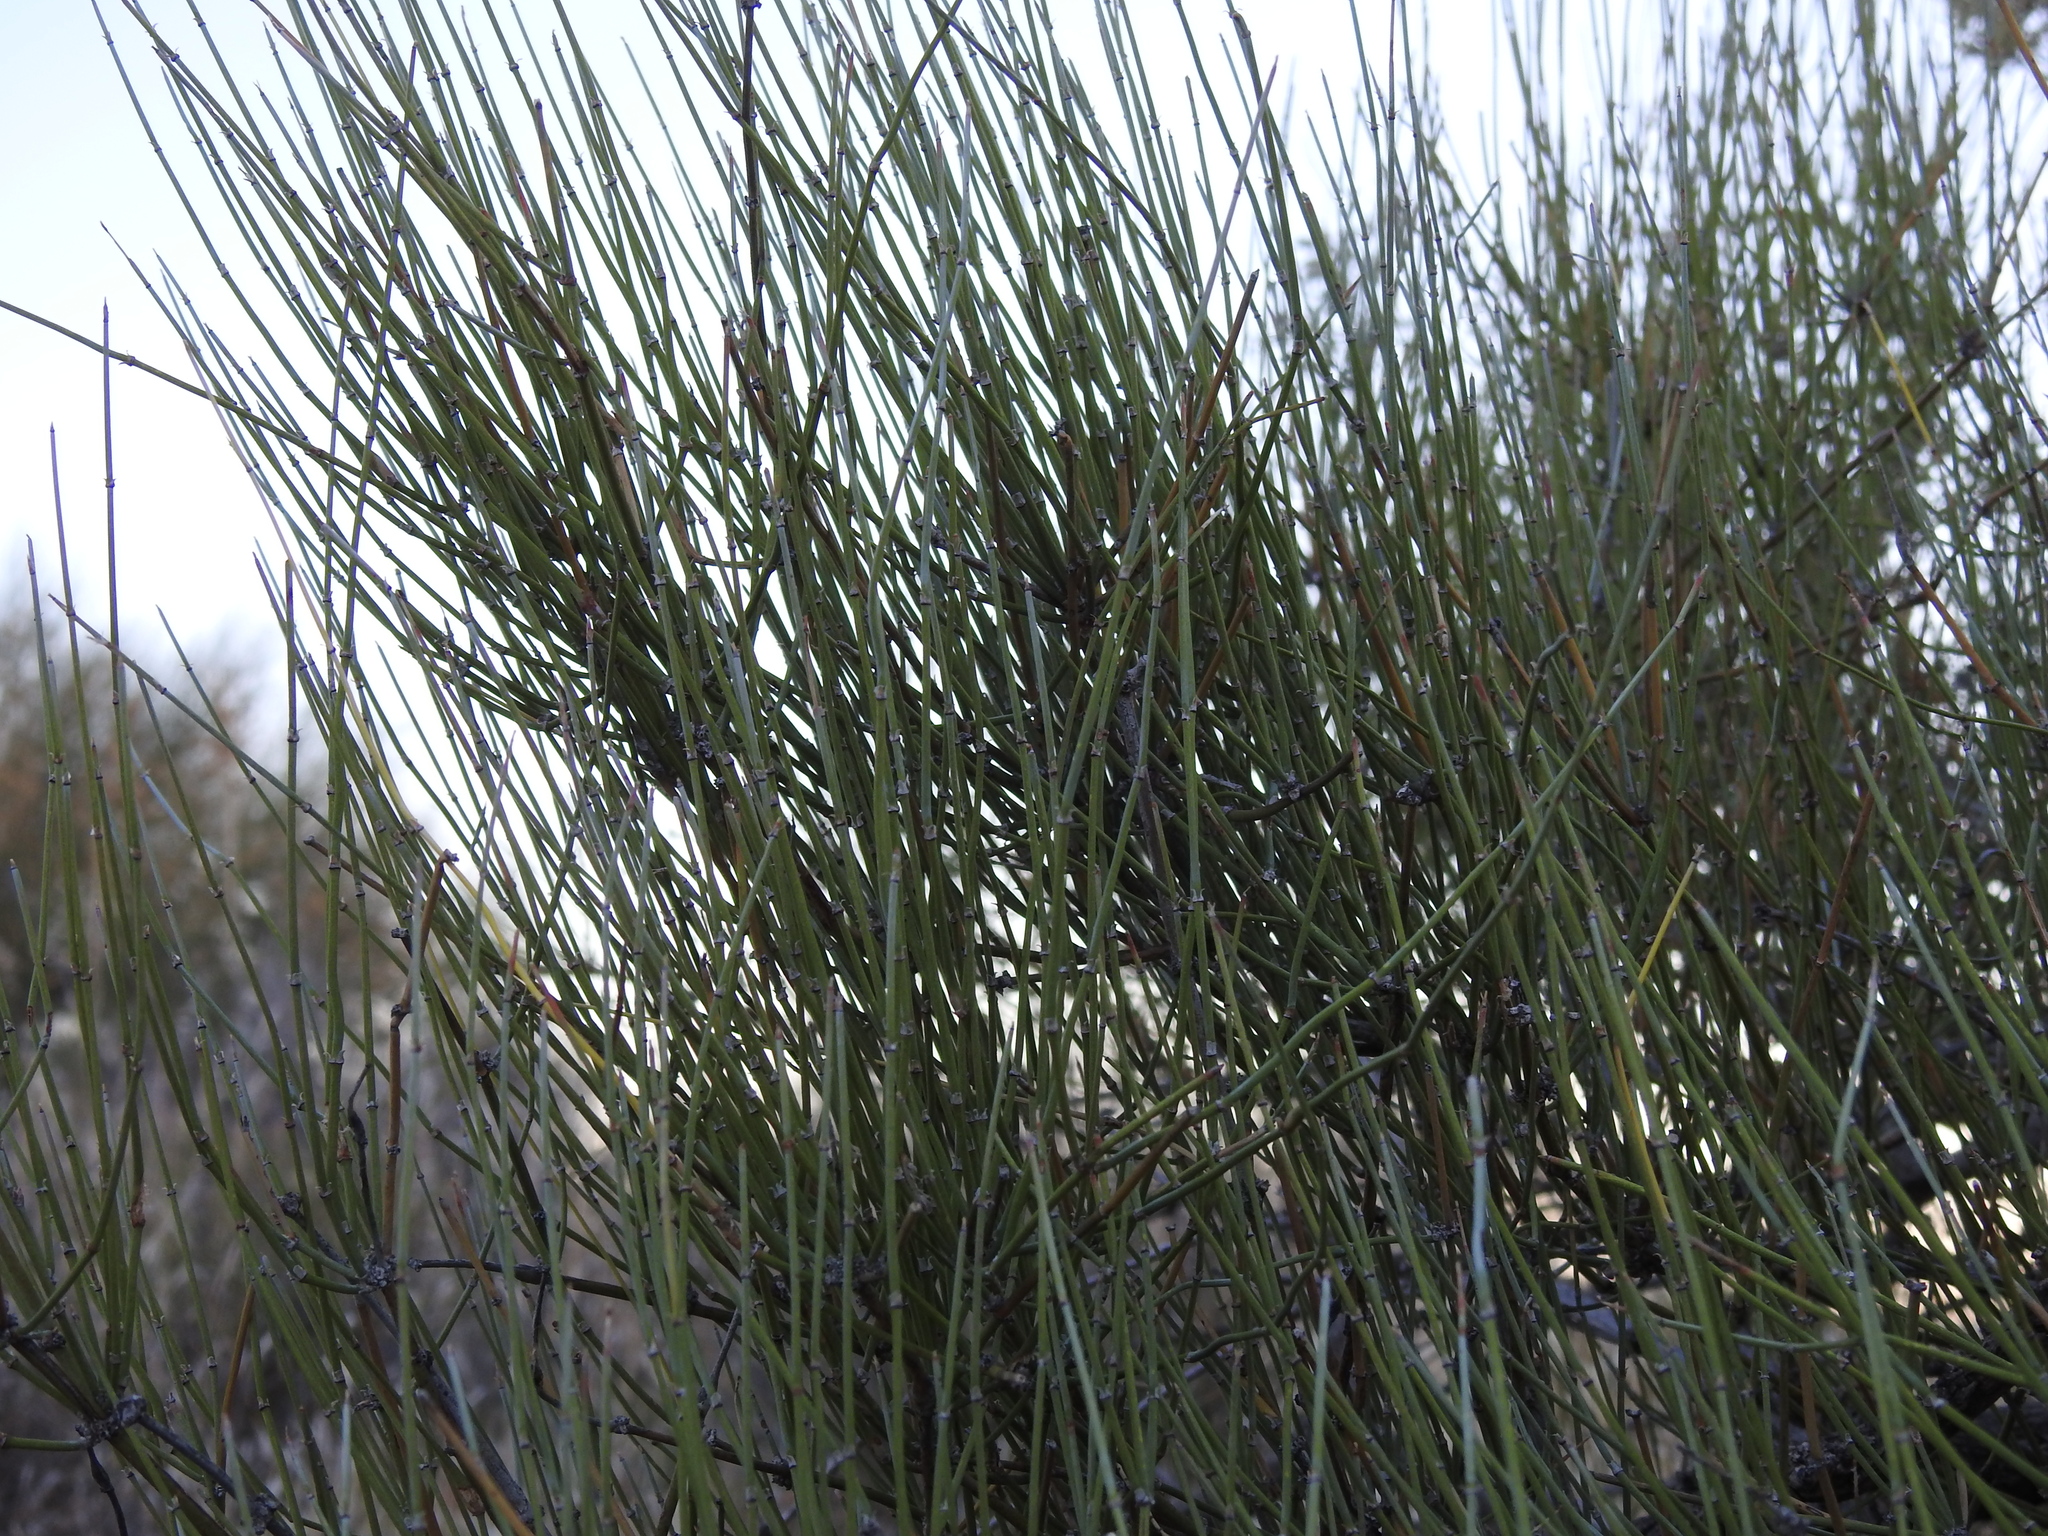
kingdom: Plantae
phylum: Tracheophyta
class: Gnetopsida
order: Ephedrales
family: Ephedraceae
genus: Ephedra
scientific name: Ephedra aspera
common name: Boundary ephedra
